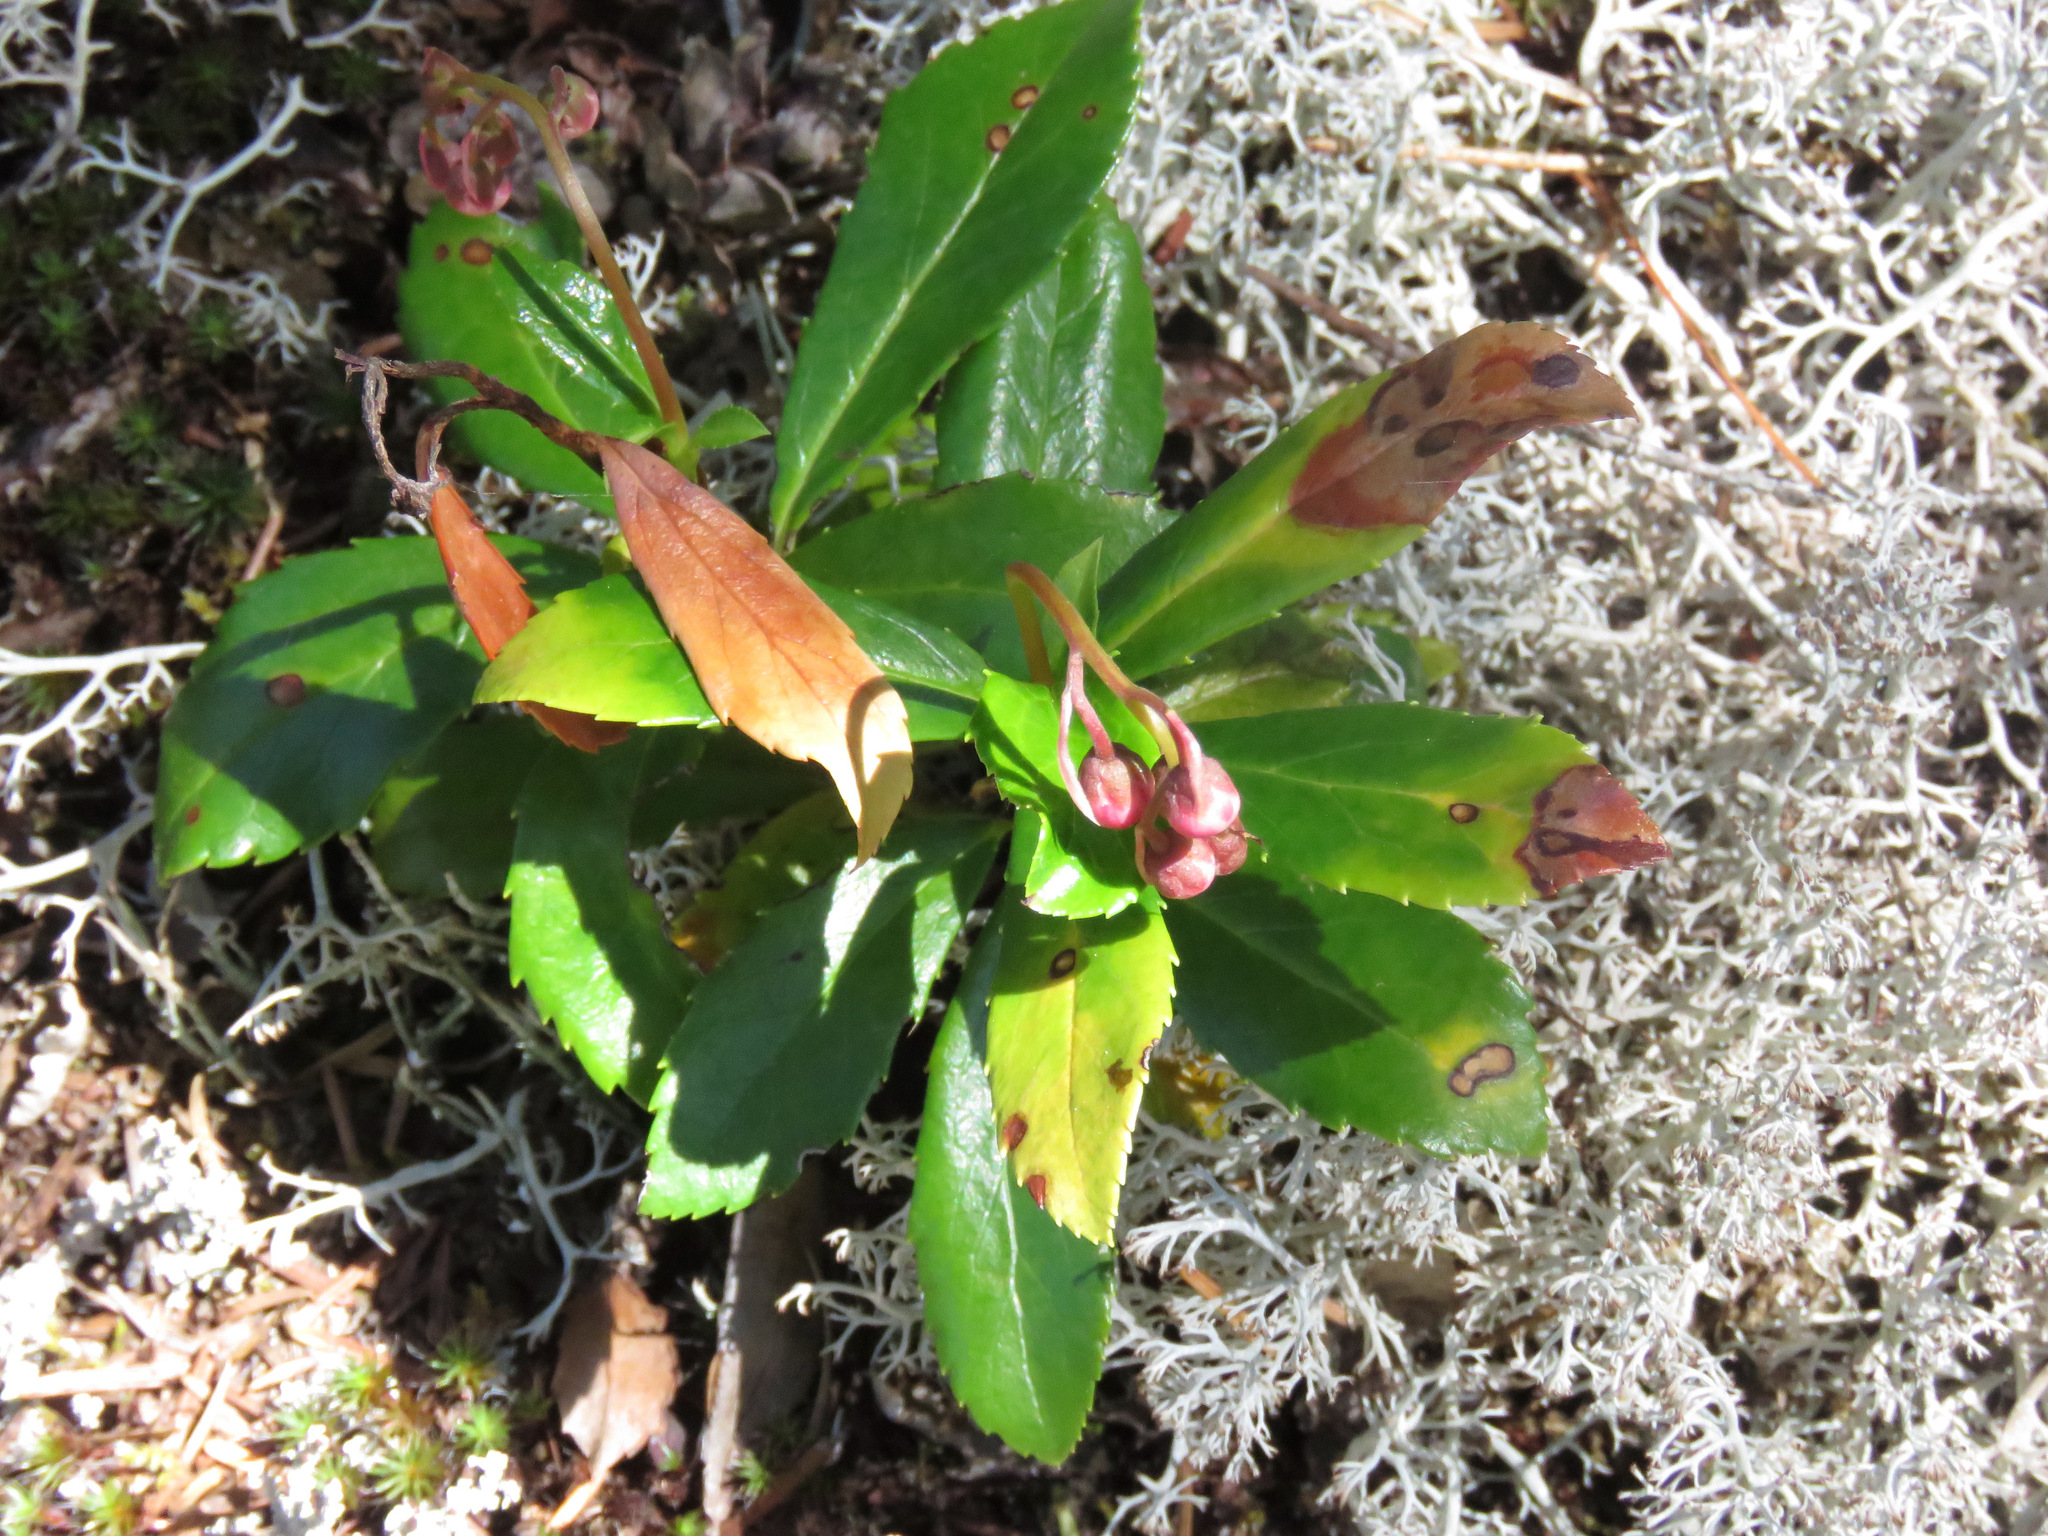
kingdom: Plantae
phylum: Tracheophyta
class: Magnoliopsida
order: Ericales
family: Ericaceae
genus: Chimaphila
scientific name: Chimaphila umbellata
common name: Pipsissewa
